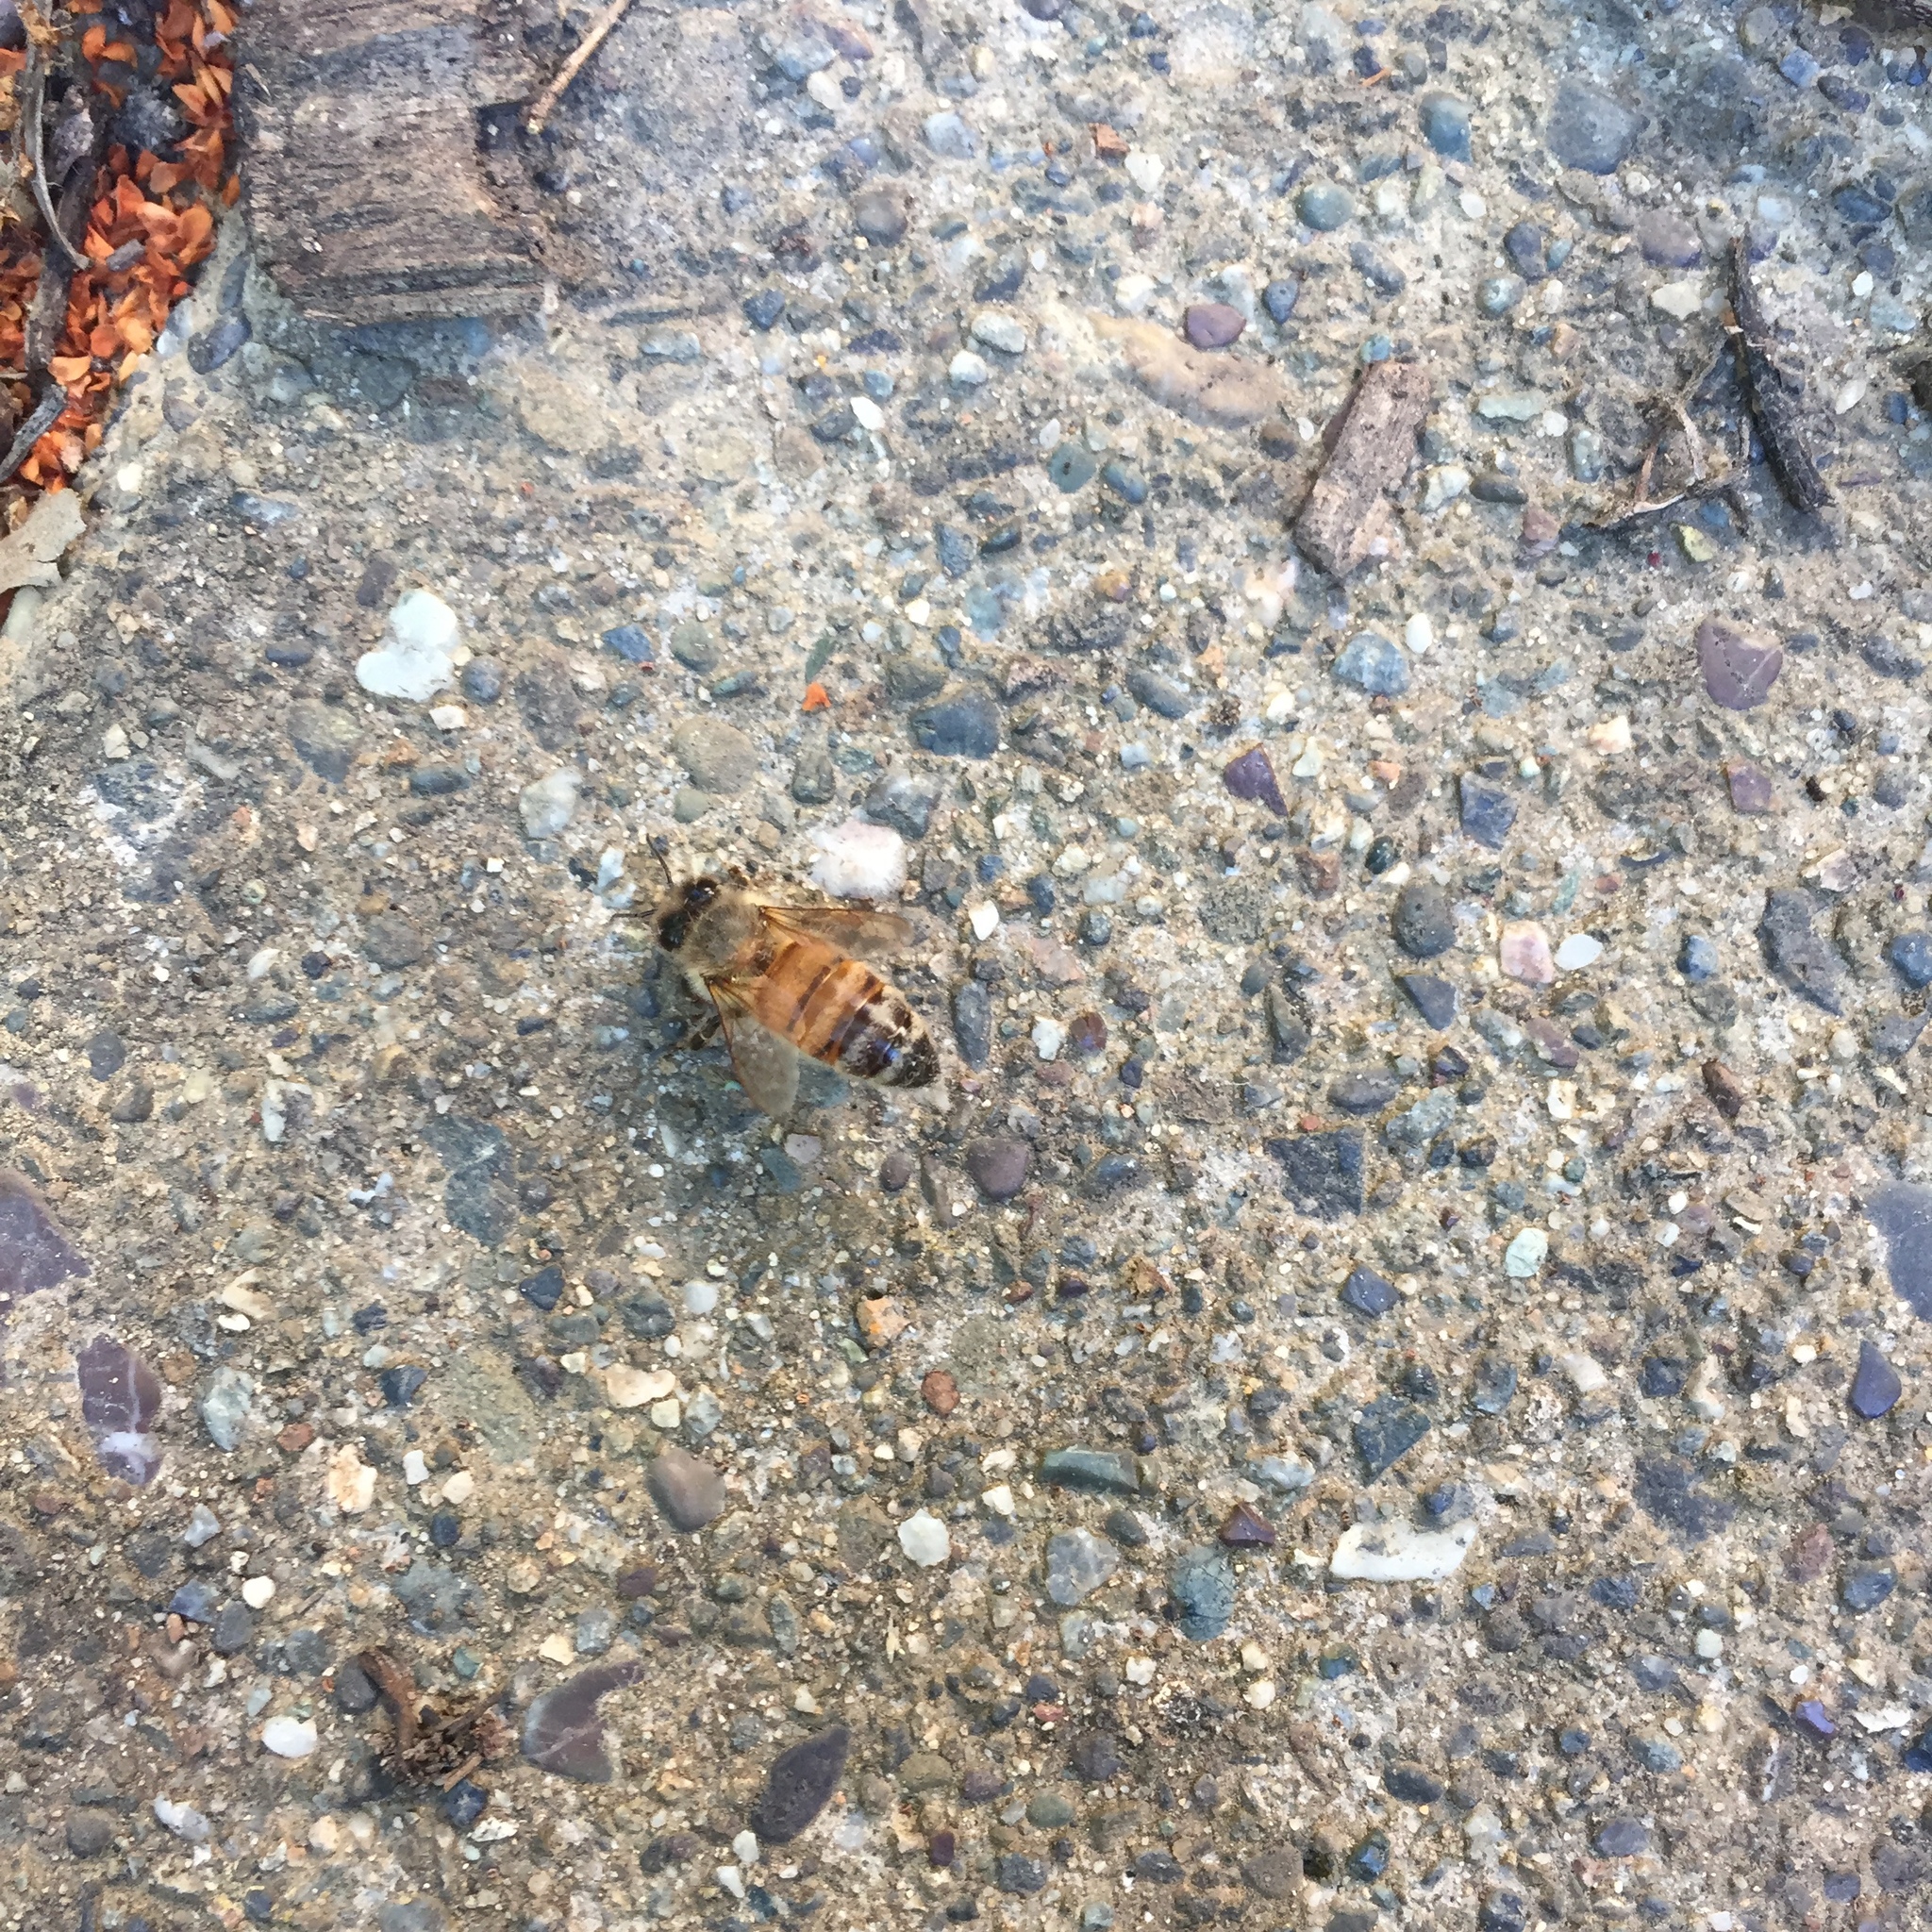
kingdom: Animalia
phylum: Arthropoda
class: Insecta
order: Hymenoptera
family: Apidae
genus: Apis
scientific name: Apis mellifera
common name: Honey bee
